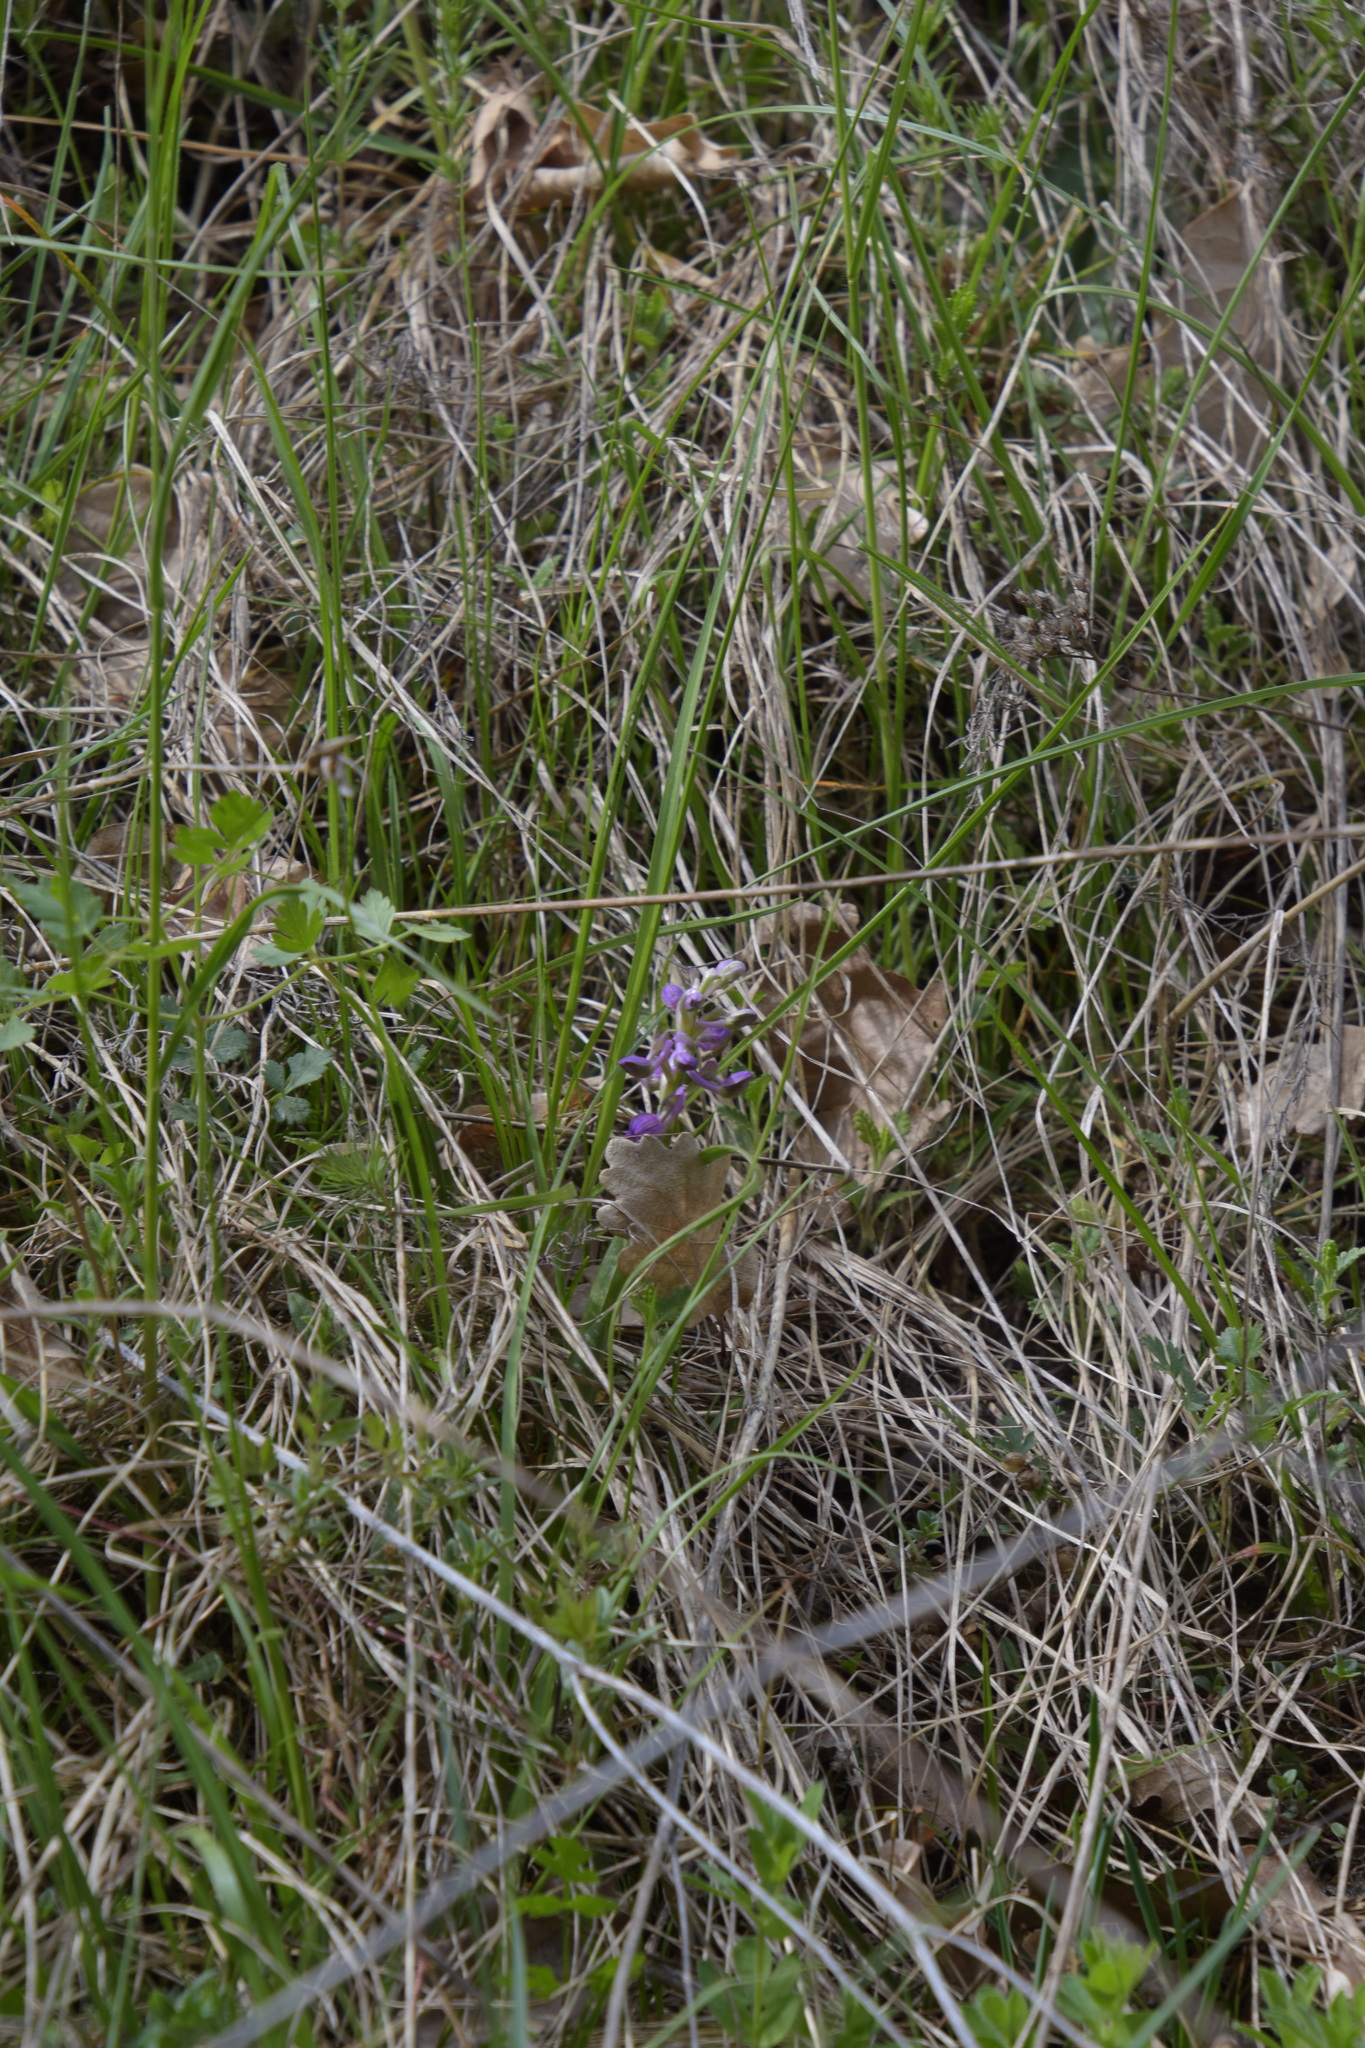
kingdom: Plantae
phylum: Tracheophyta
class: Liliopsida
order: Asparagales
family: Orchidaceae
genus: Anacamptis
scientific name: Anacamptis morio
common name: Green-winged orchid
